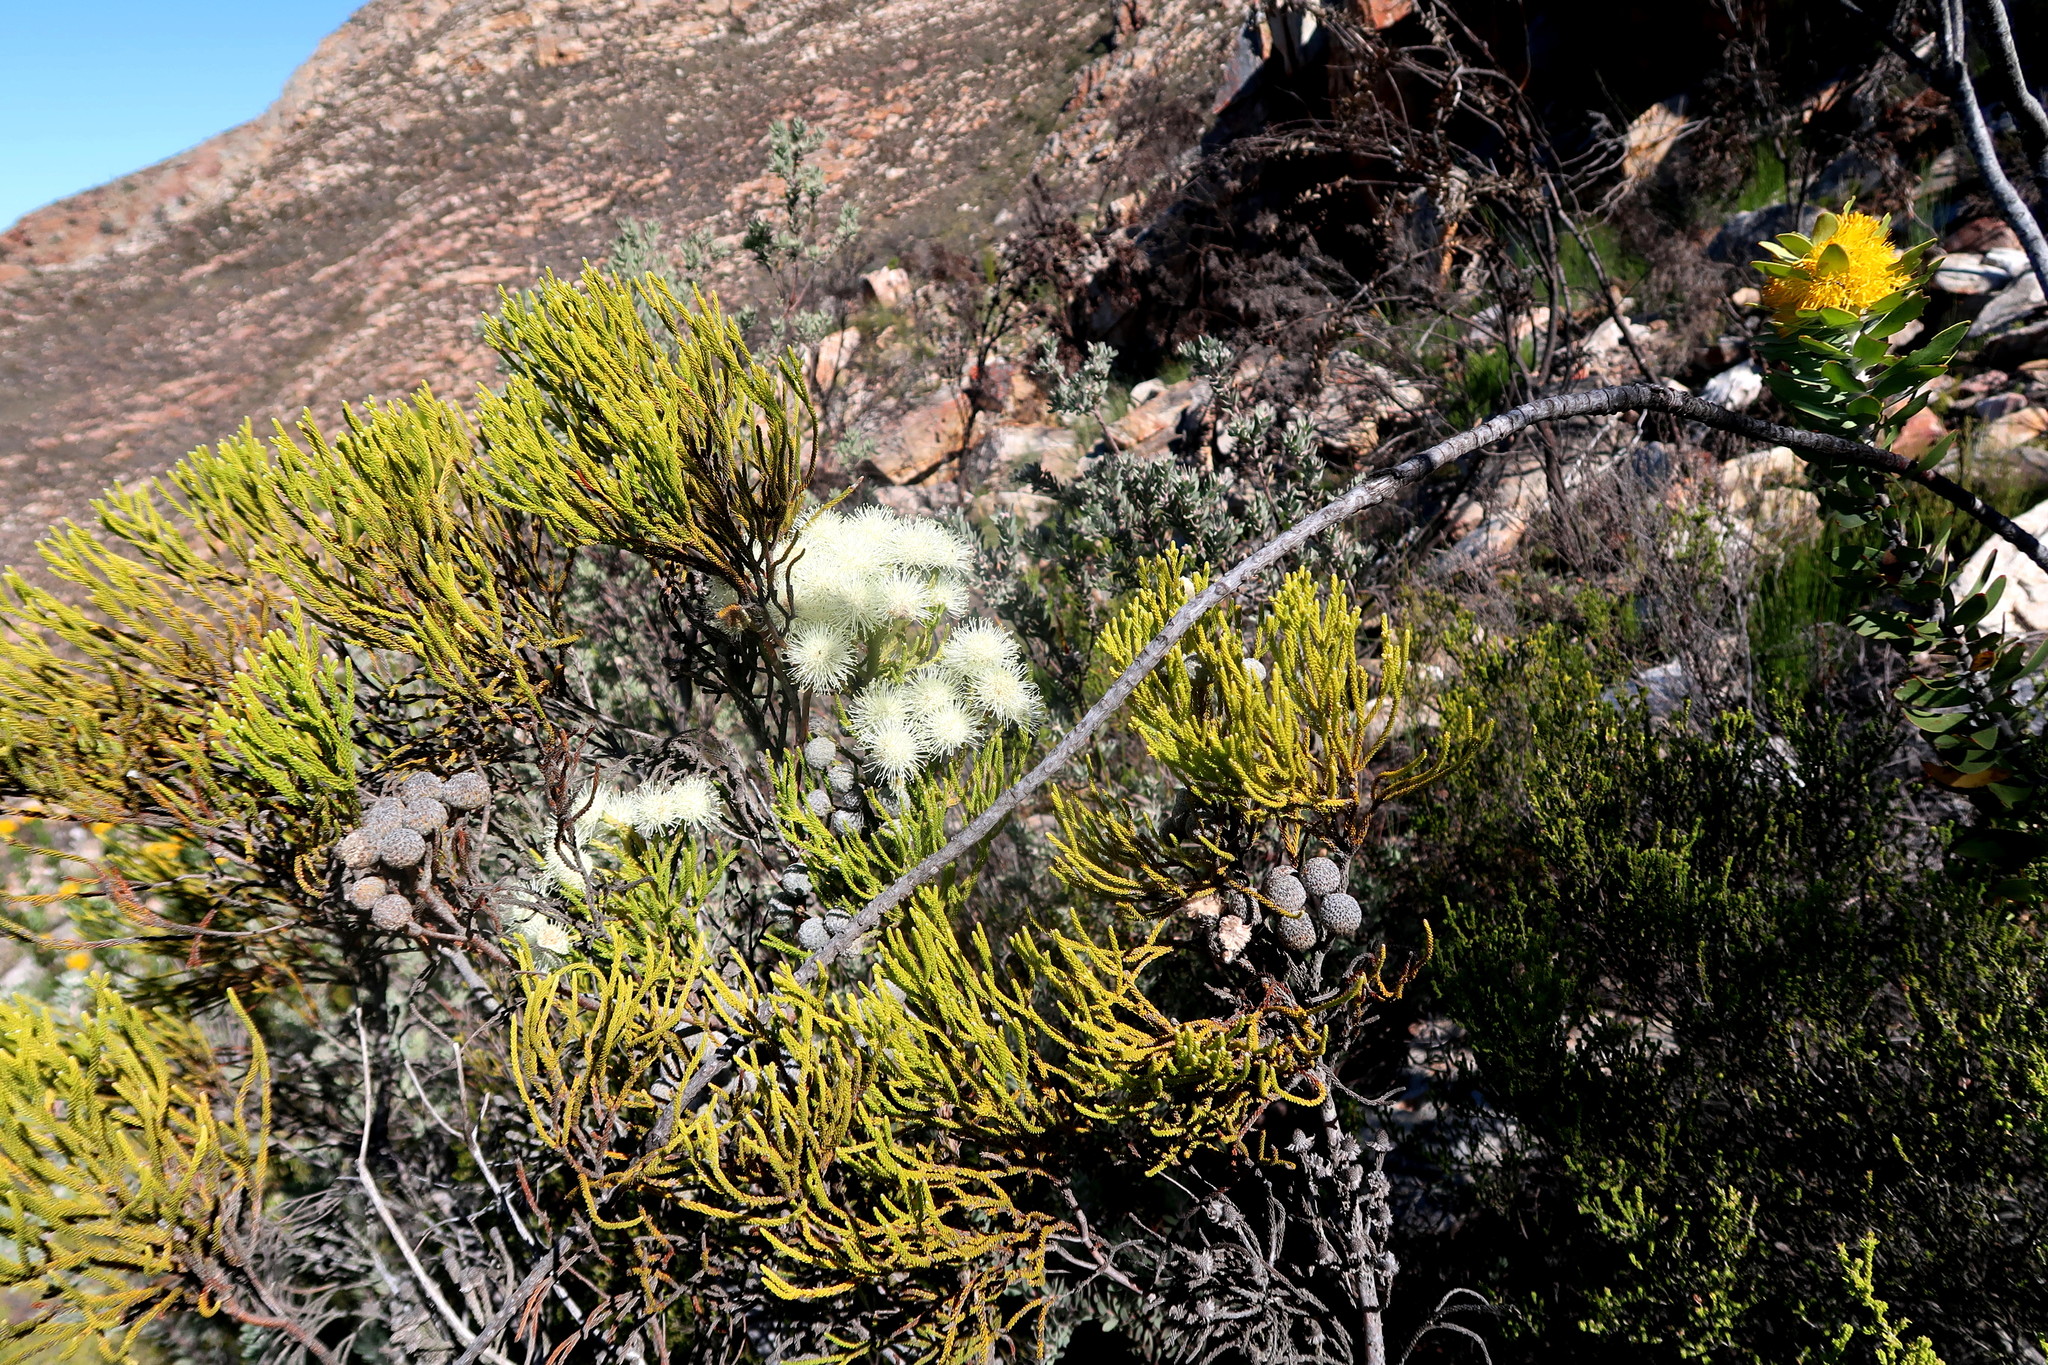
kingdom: Plantae
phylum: Tracheophyta
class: Magnoliopsida
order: Bruniales
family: Bruniaceae
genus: Brunia
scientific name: Brunia noduliflora
